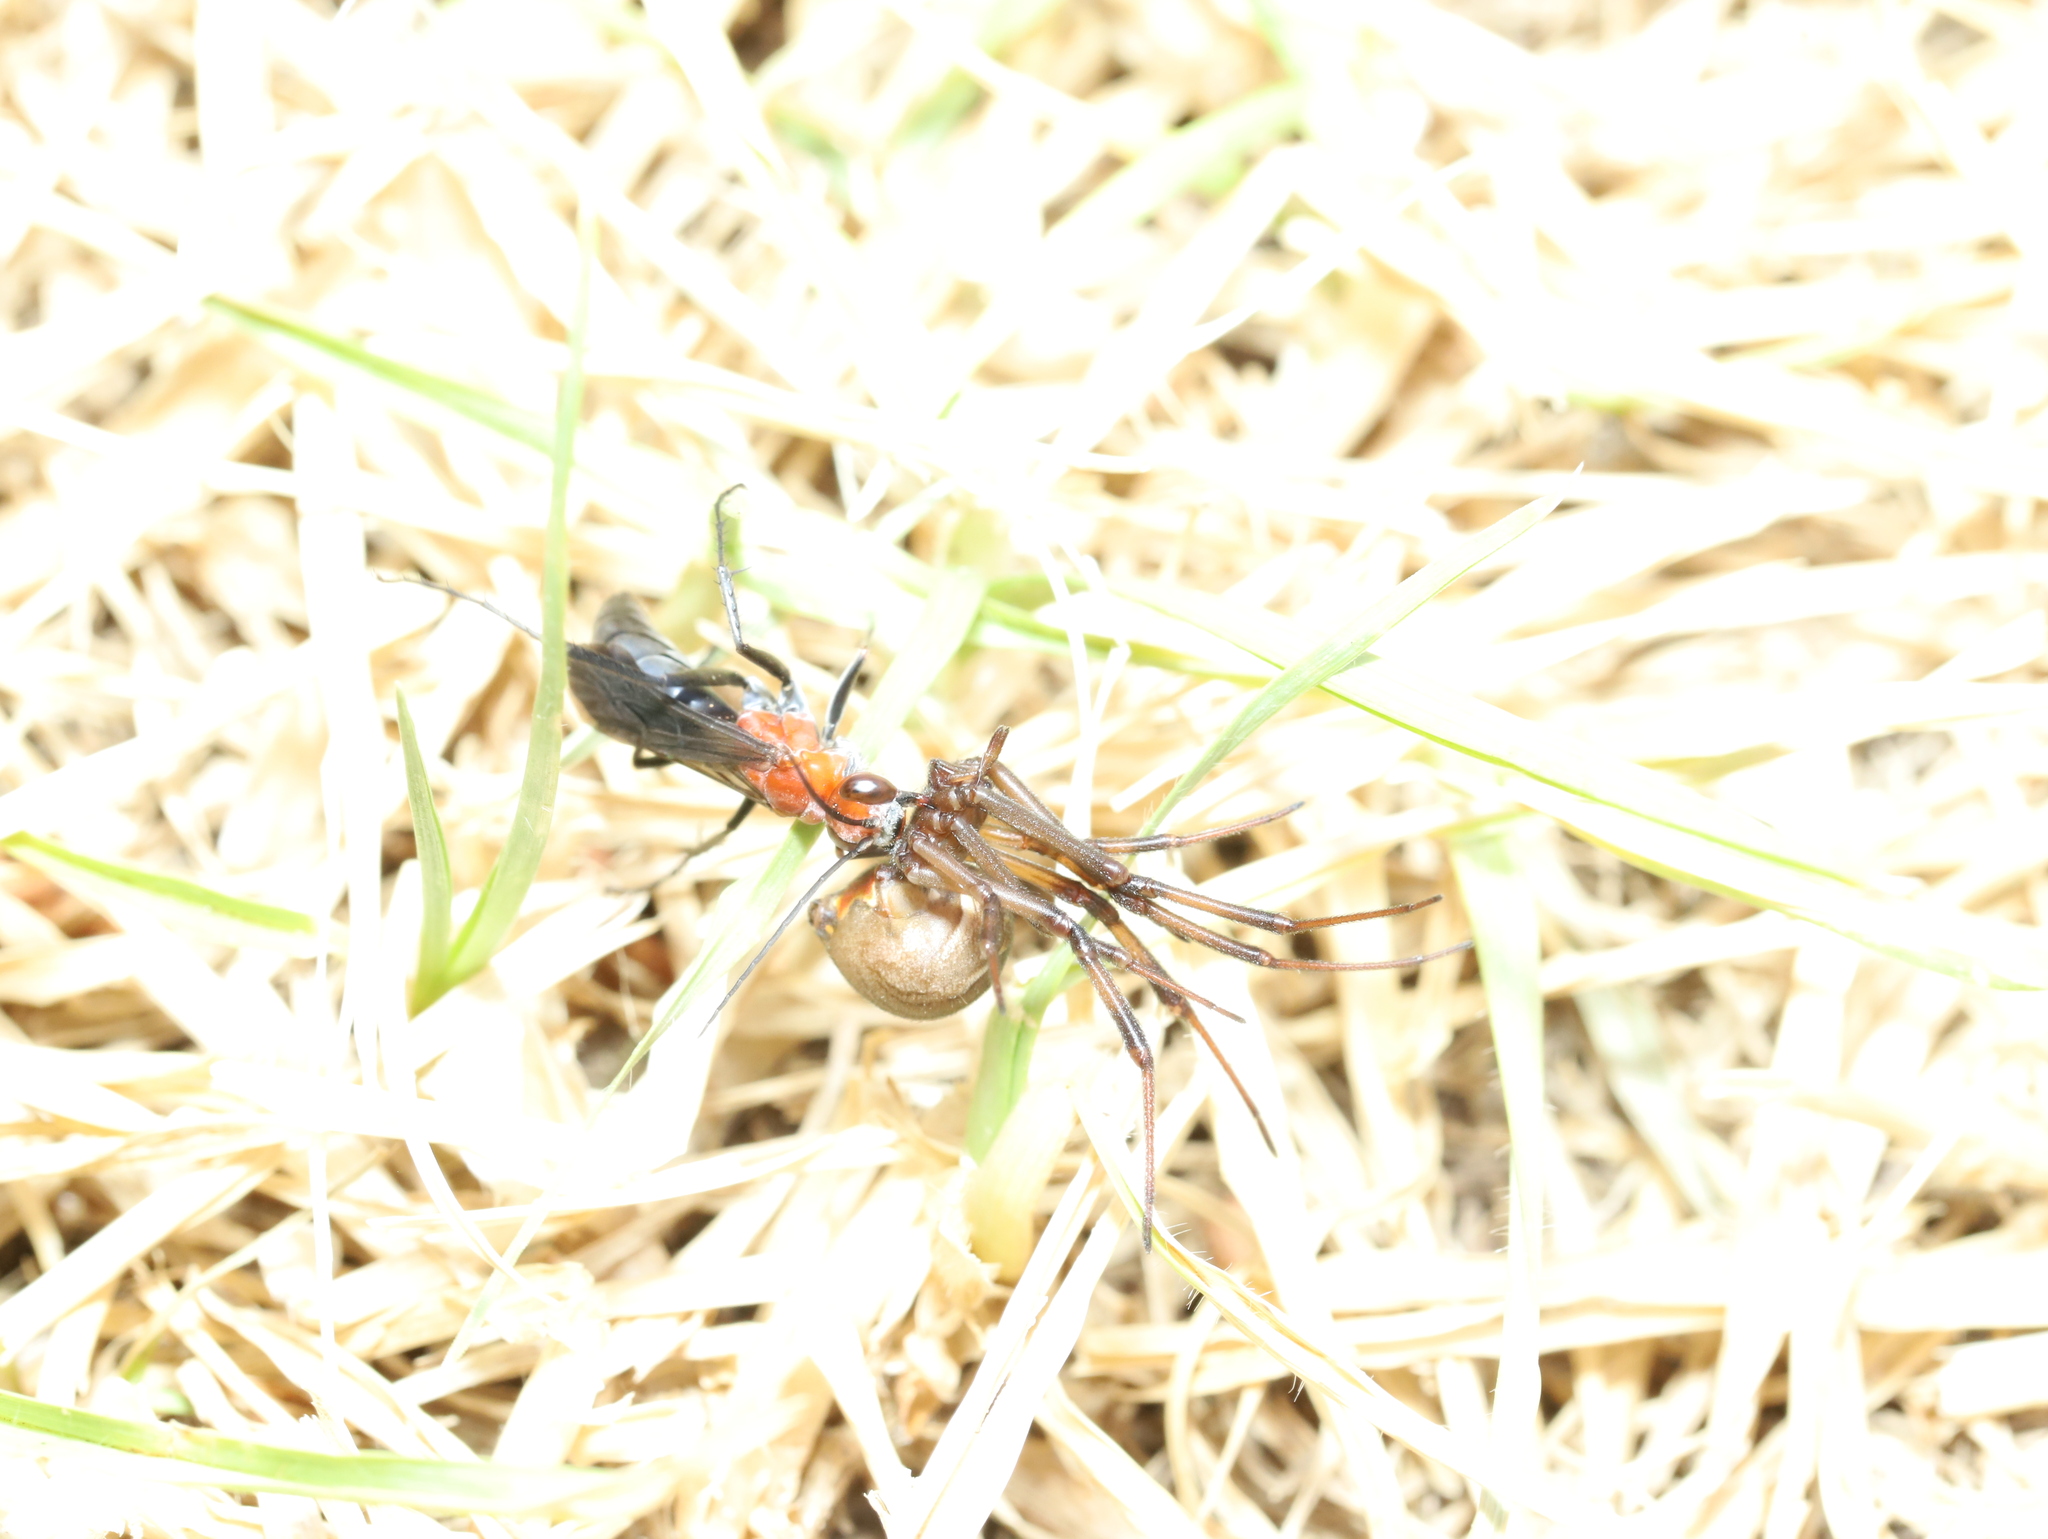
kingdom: Animalia
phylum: Arthropoda
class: Arachnida
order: Araneae
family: Theridiidae
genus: Latrodectus
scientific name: Latrodectus hasselti
